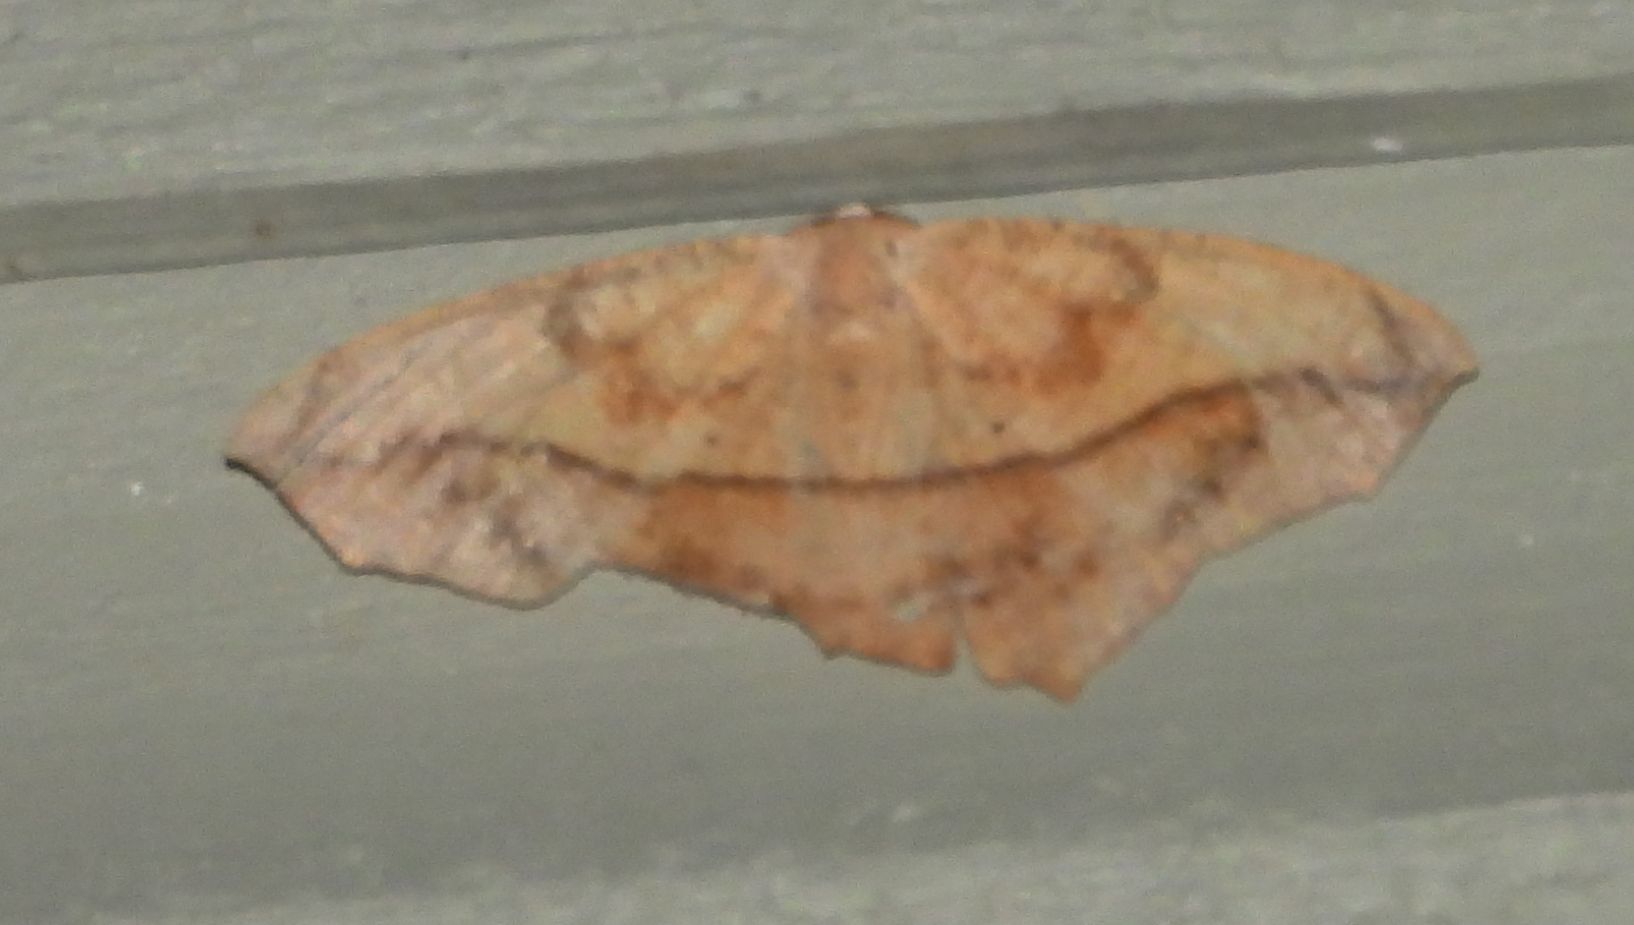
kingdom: Animalia
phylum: Arthropoda
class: Insecta
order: Lepidoptera
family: Geometridae
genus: Prochoerodes
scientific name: Prochoerodes lineola
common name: Large maple spanworm
